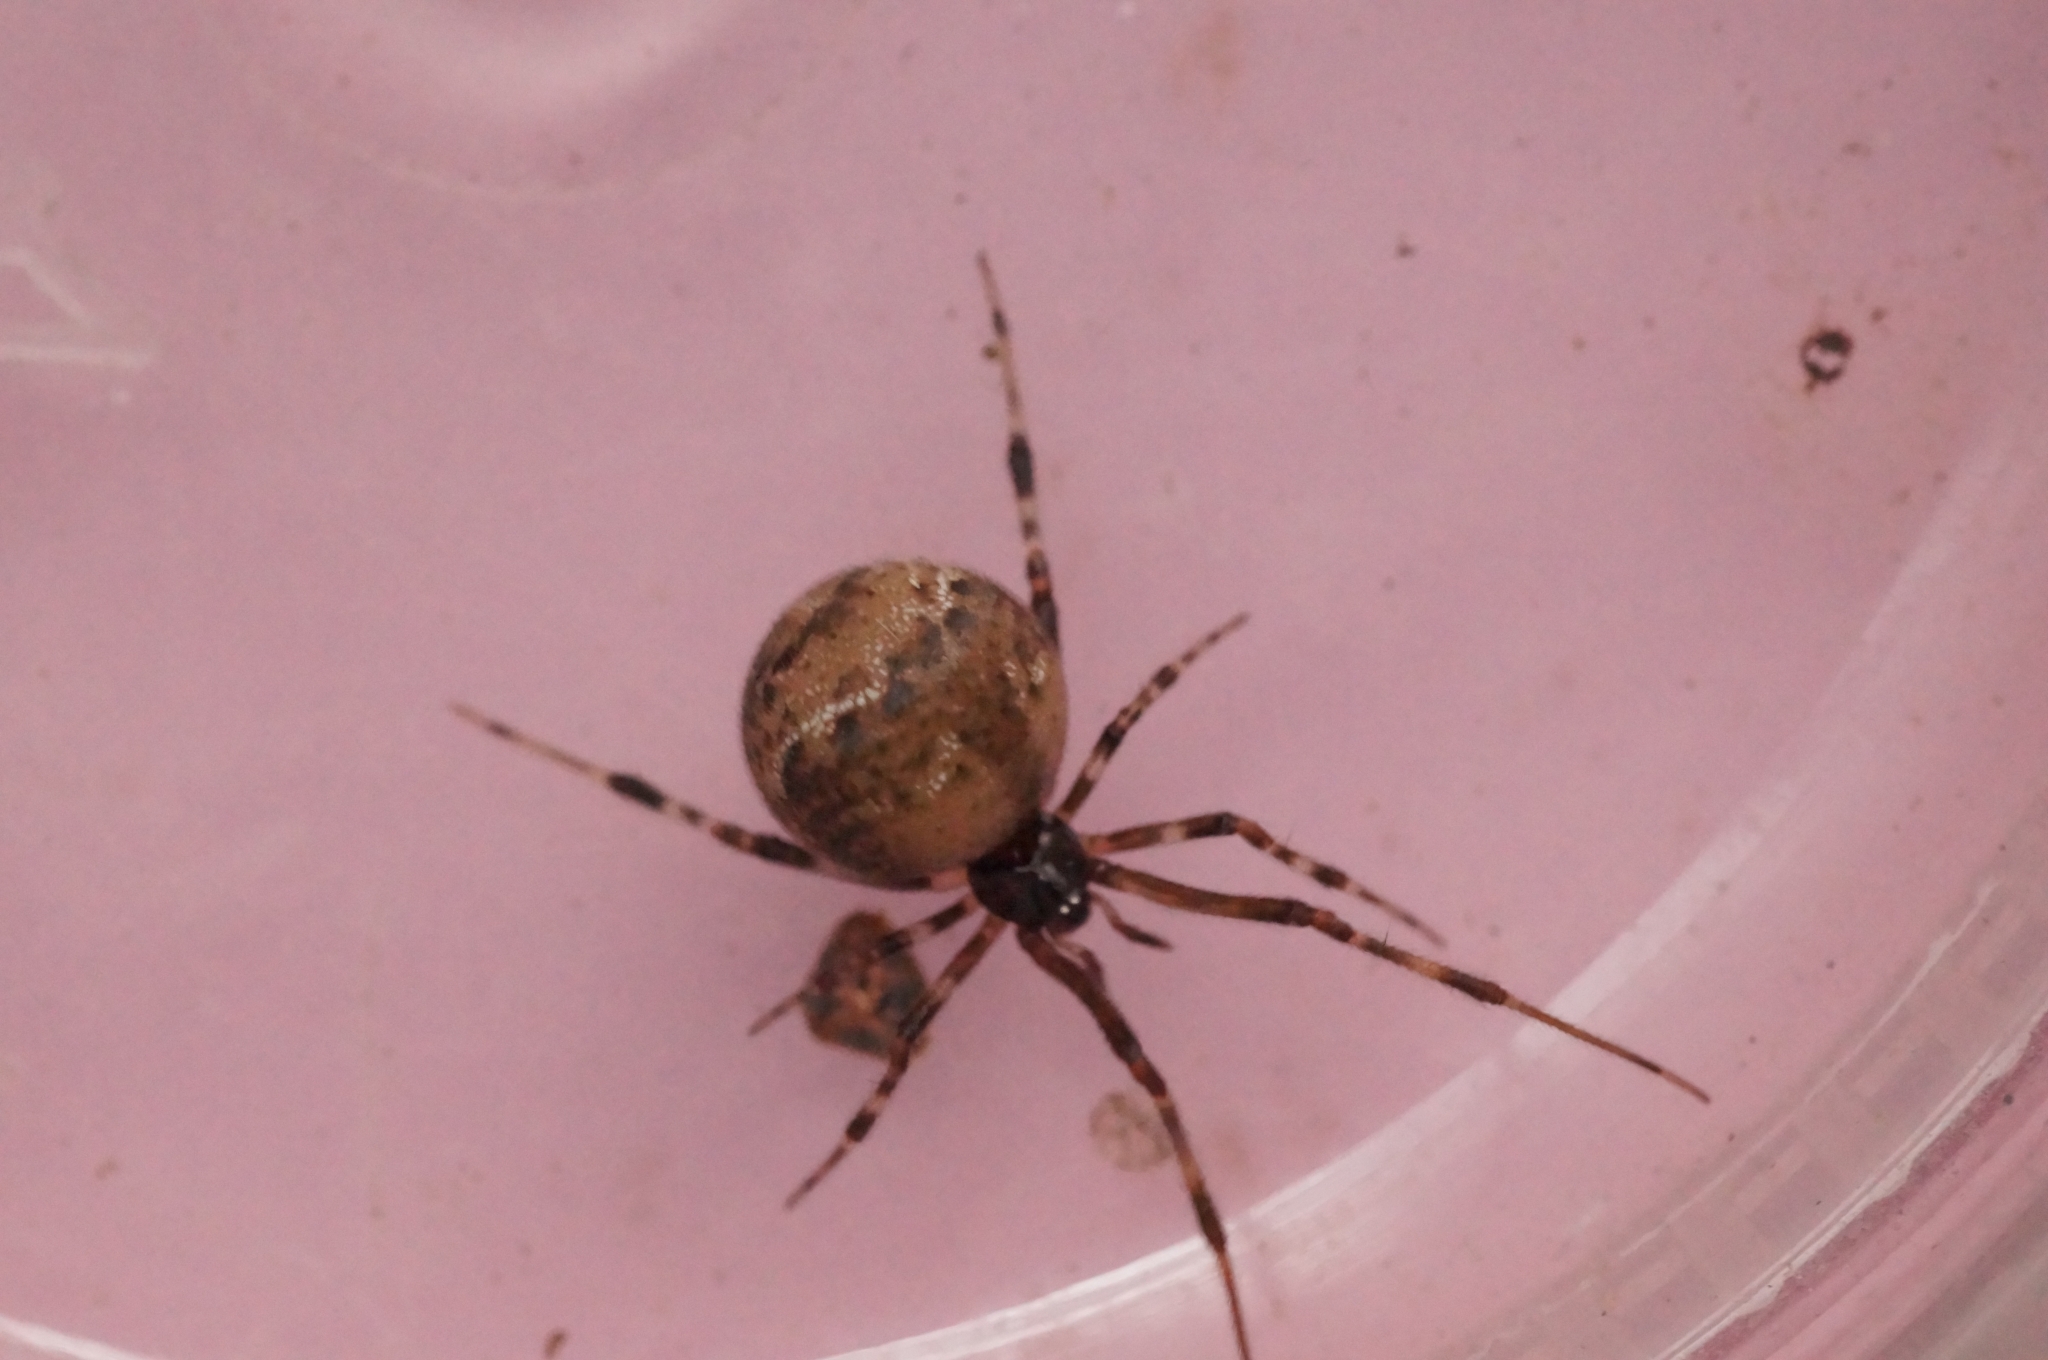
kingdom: Animalia
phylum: Arthropoda
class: Arachnida
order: Araneae
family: Theridiidae
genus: Cryptachaea
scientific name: Cryptachaea riparia
